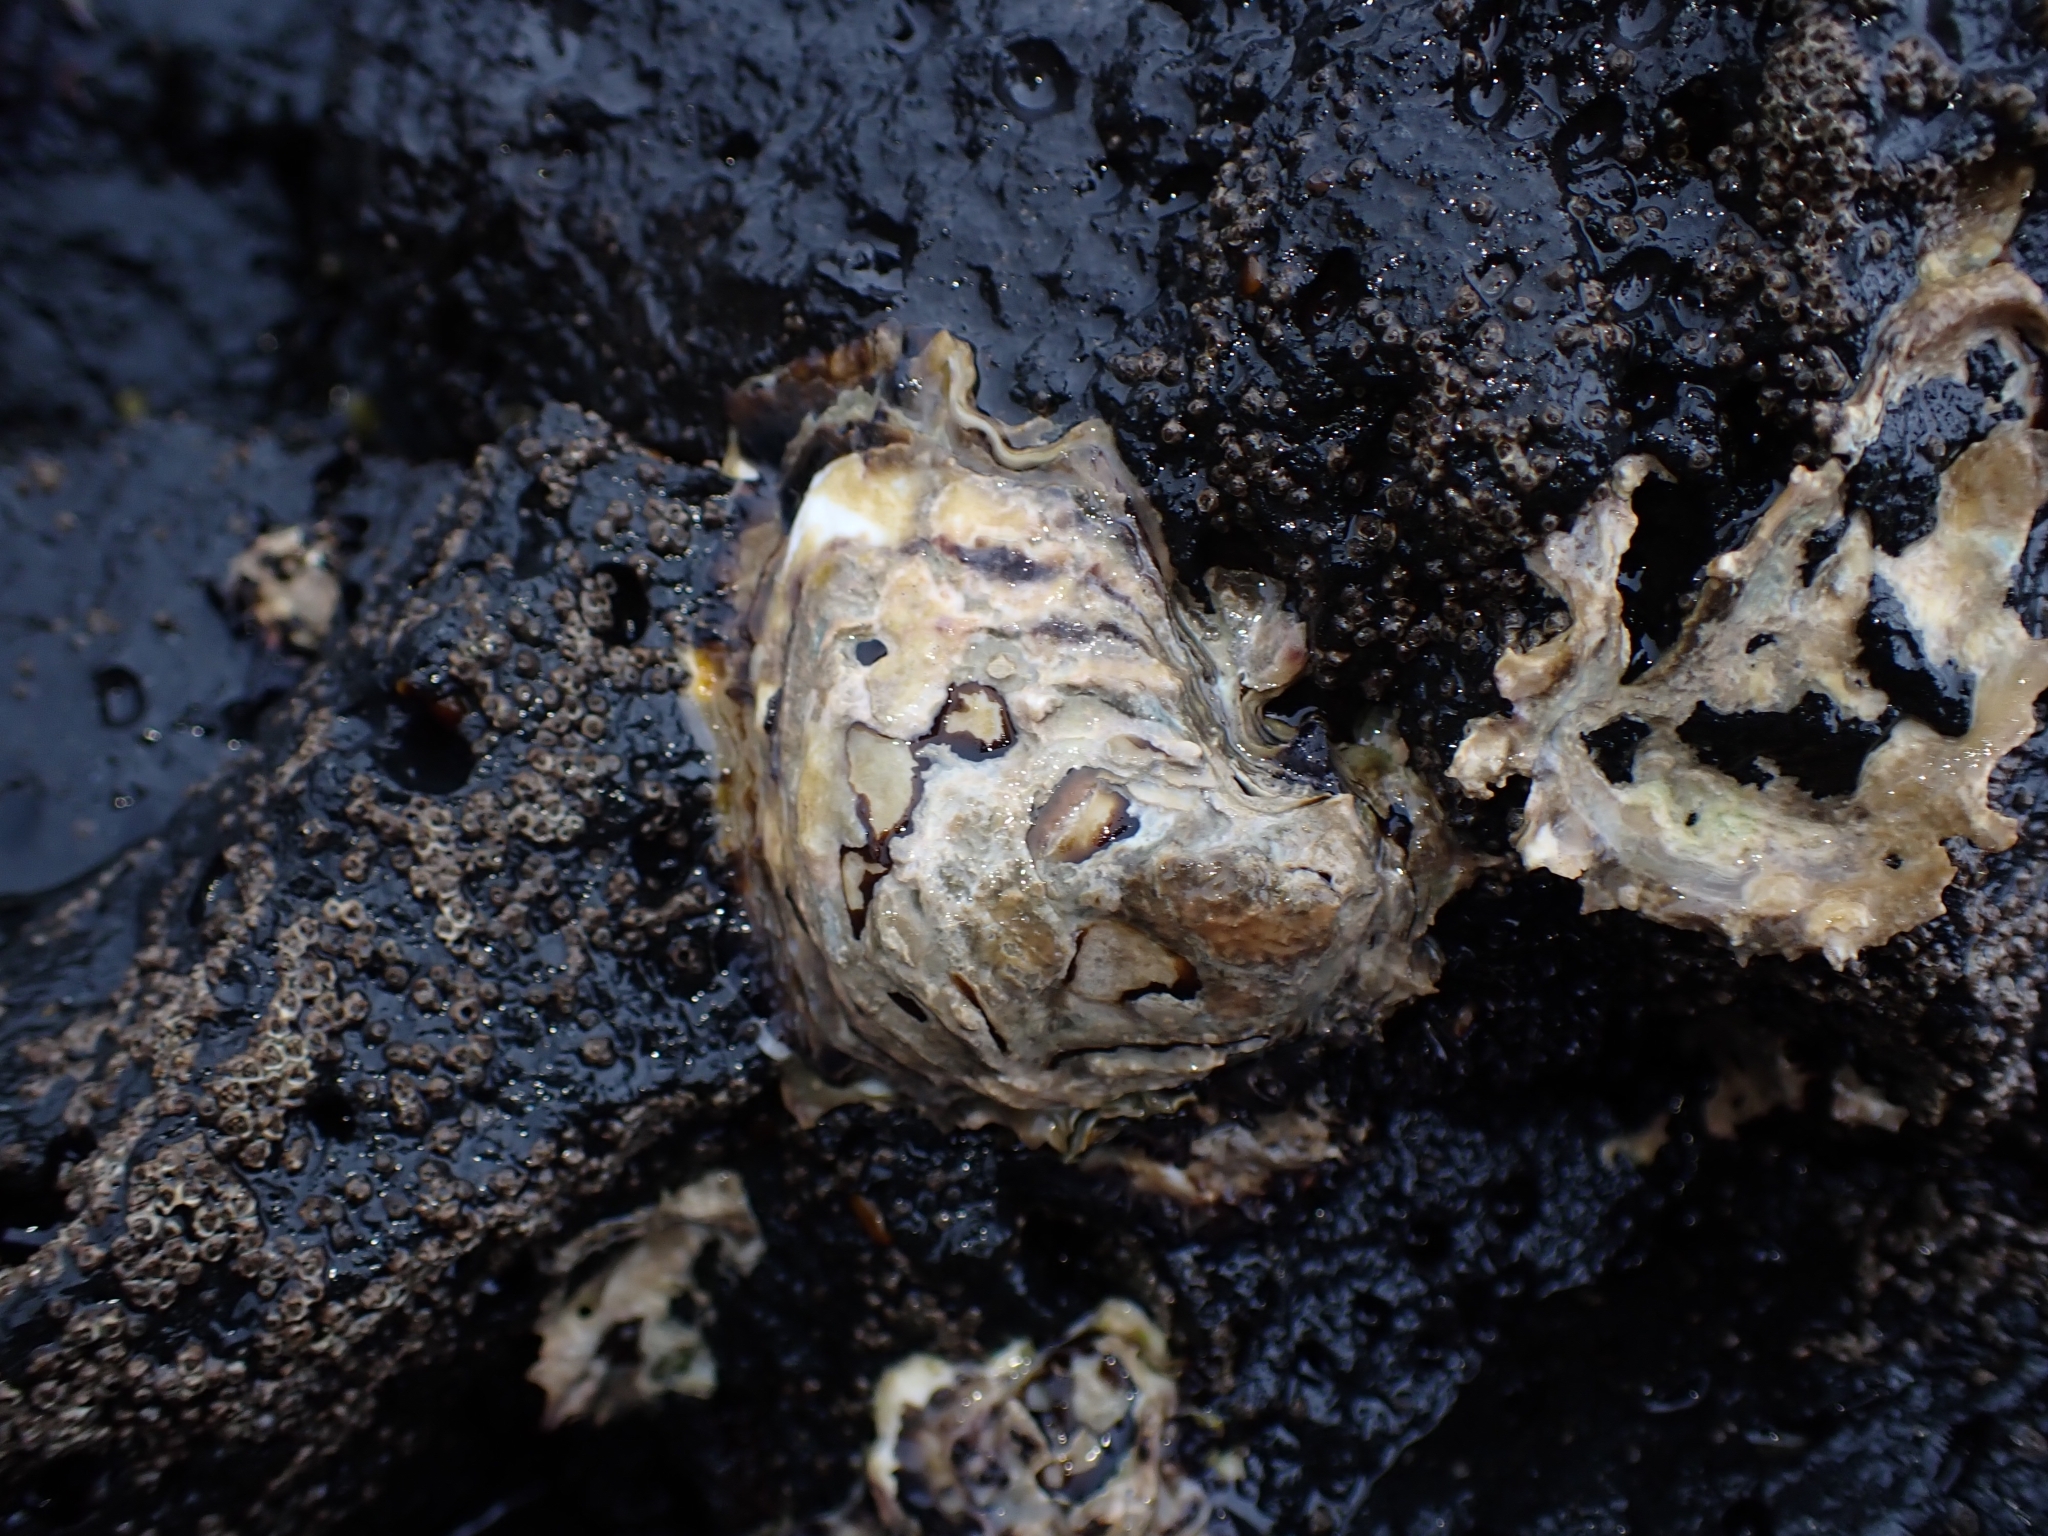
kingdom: Animalia
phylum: Mollusca
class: Bivalvia
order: Ostreida
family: Ostreidae
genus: Saccostrea
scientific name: Saccostrea glomerata
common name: Sydney cupped oyster
